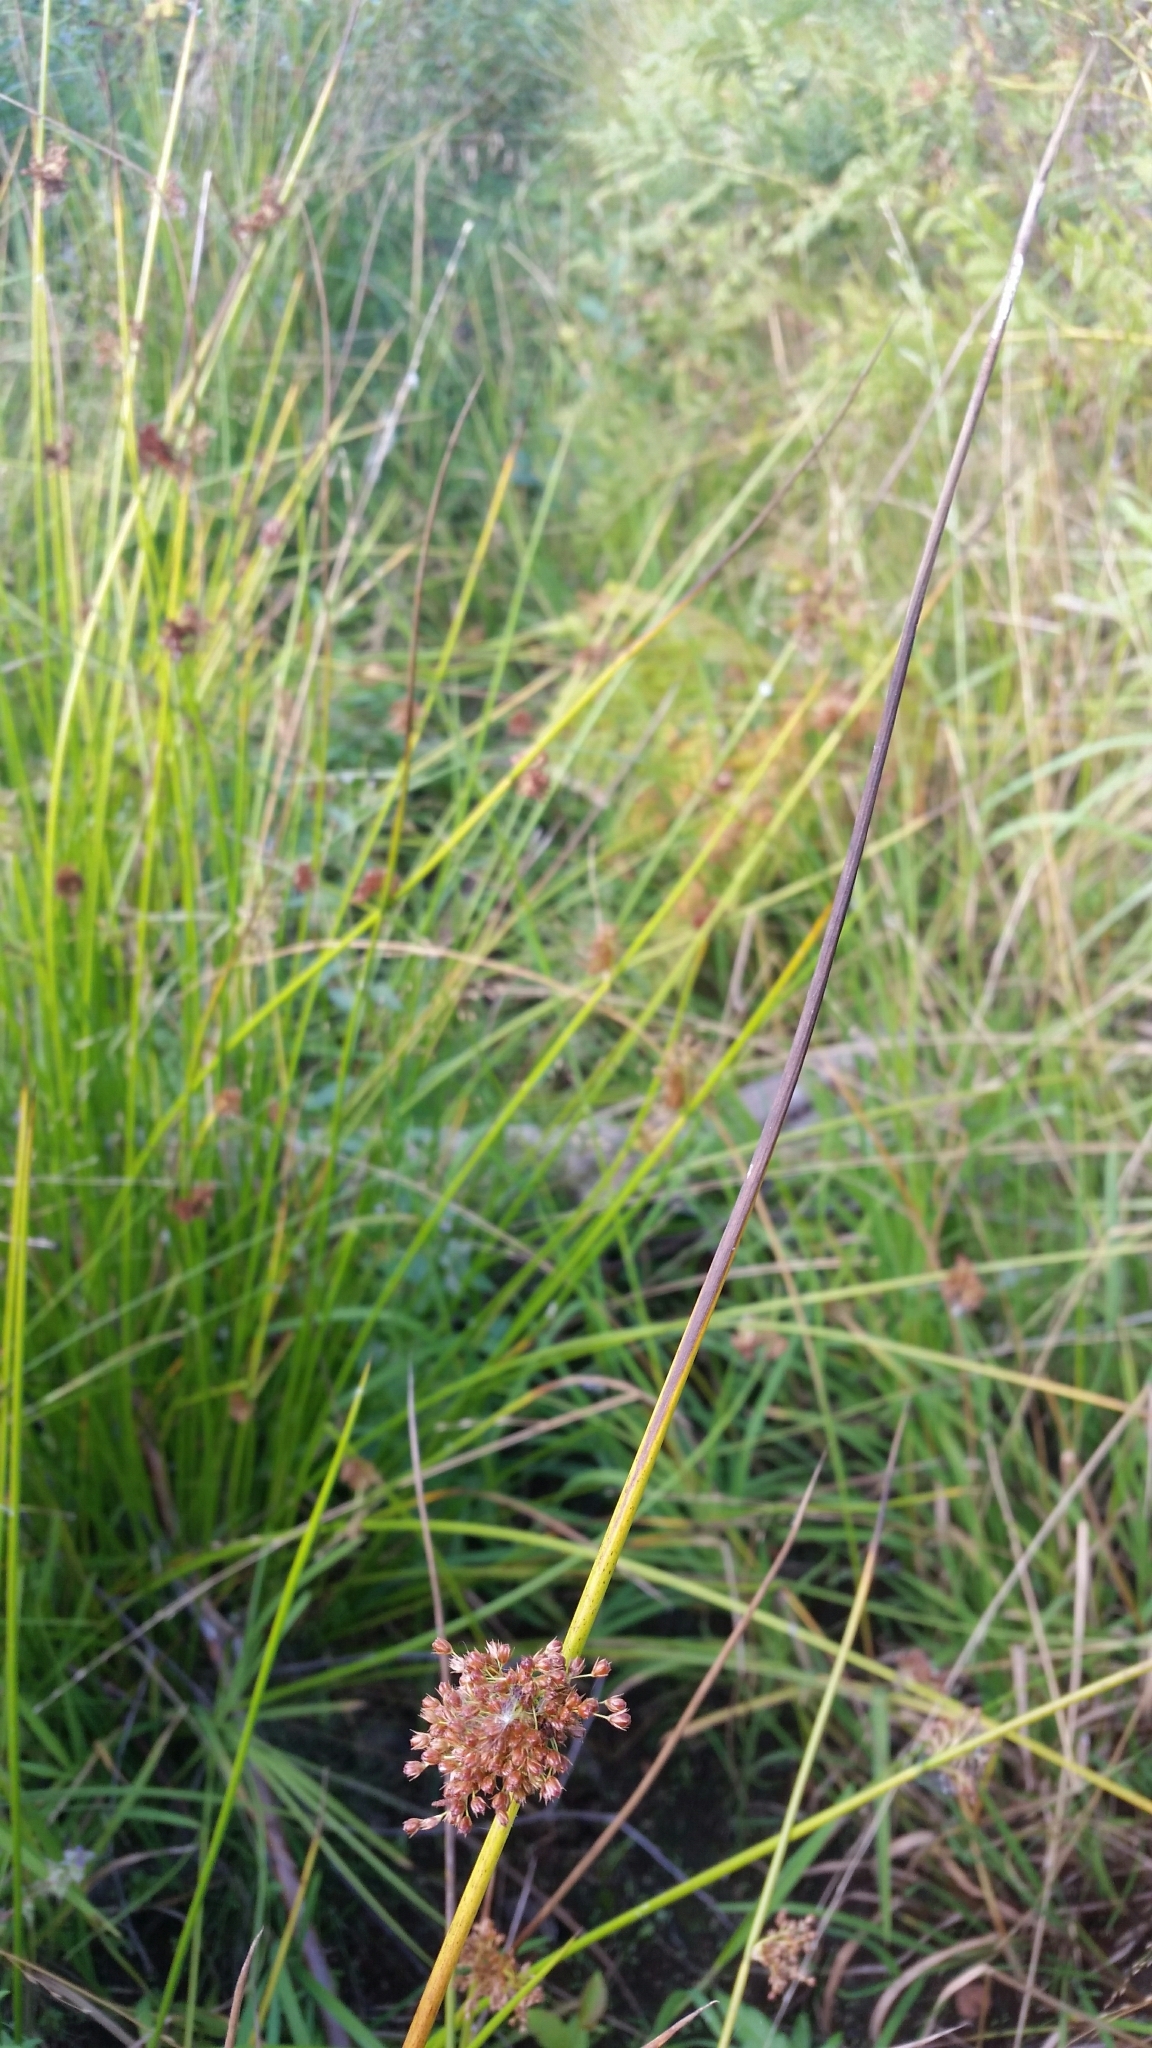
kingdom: Plantae
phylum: Tracheophyta
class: Liliopsida
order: Poales
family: Juncaceae
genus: Juncus
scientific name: Juncus effusus
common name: Soft rush
